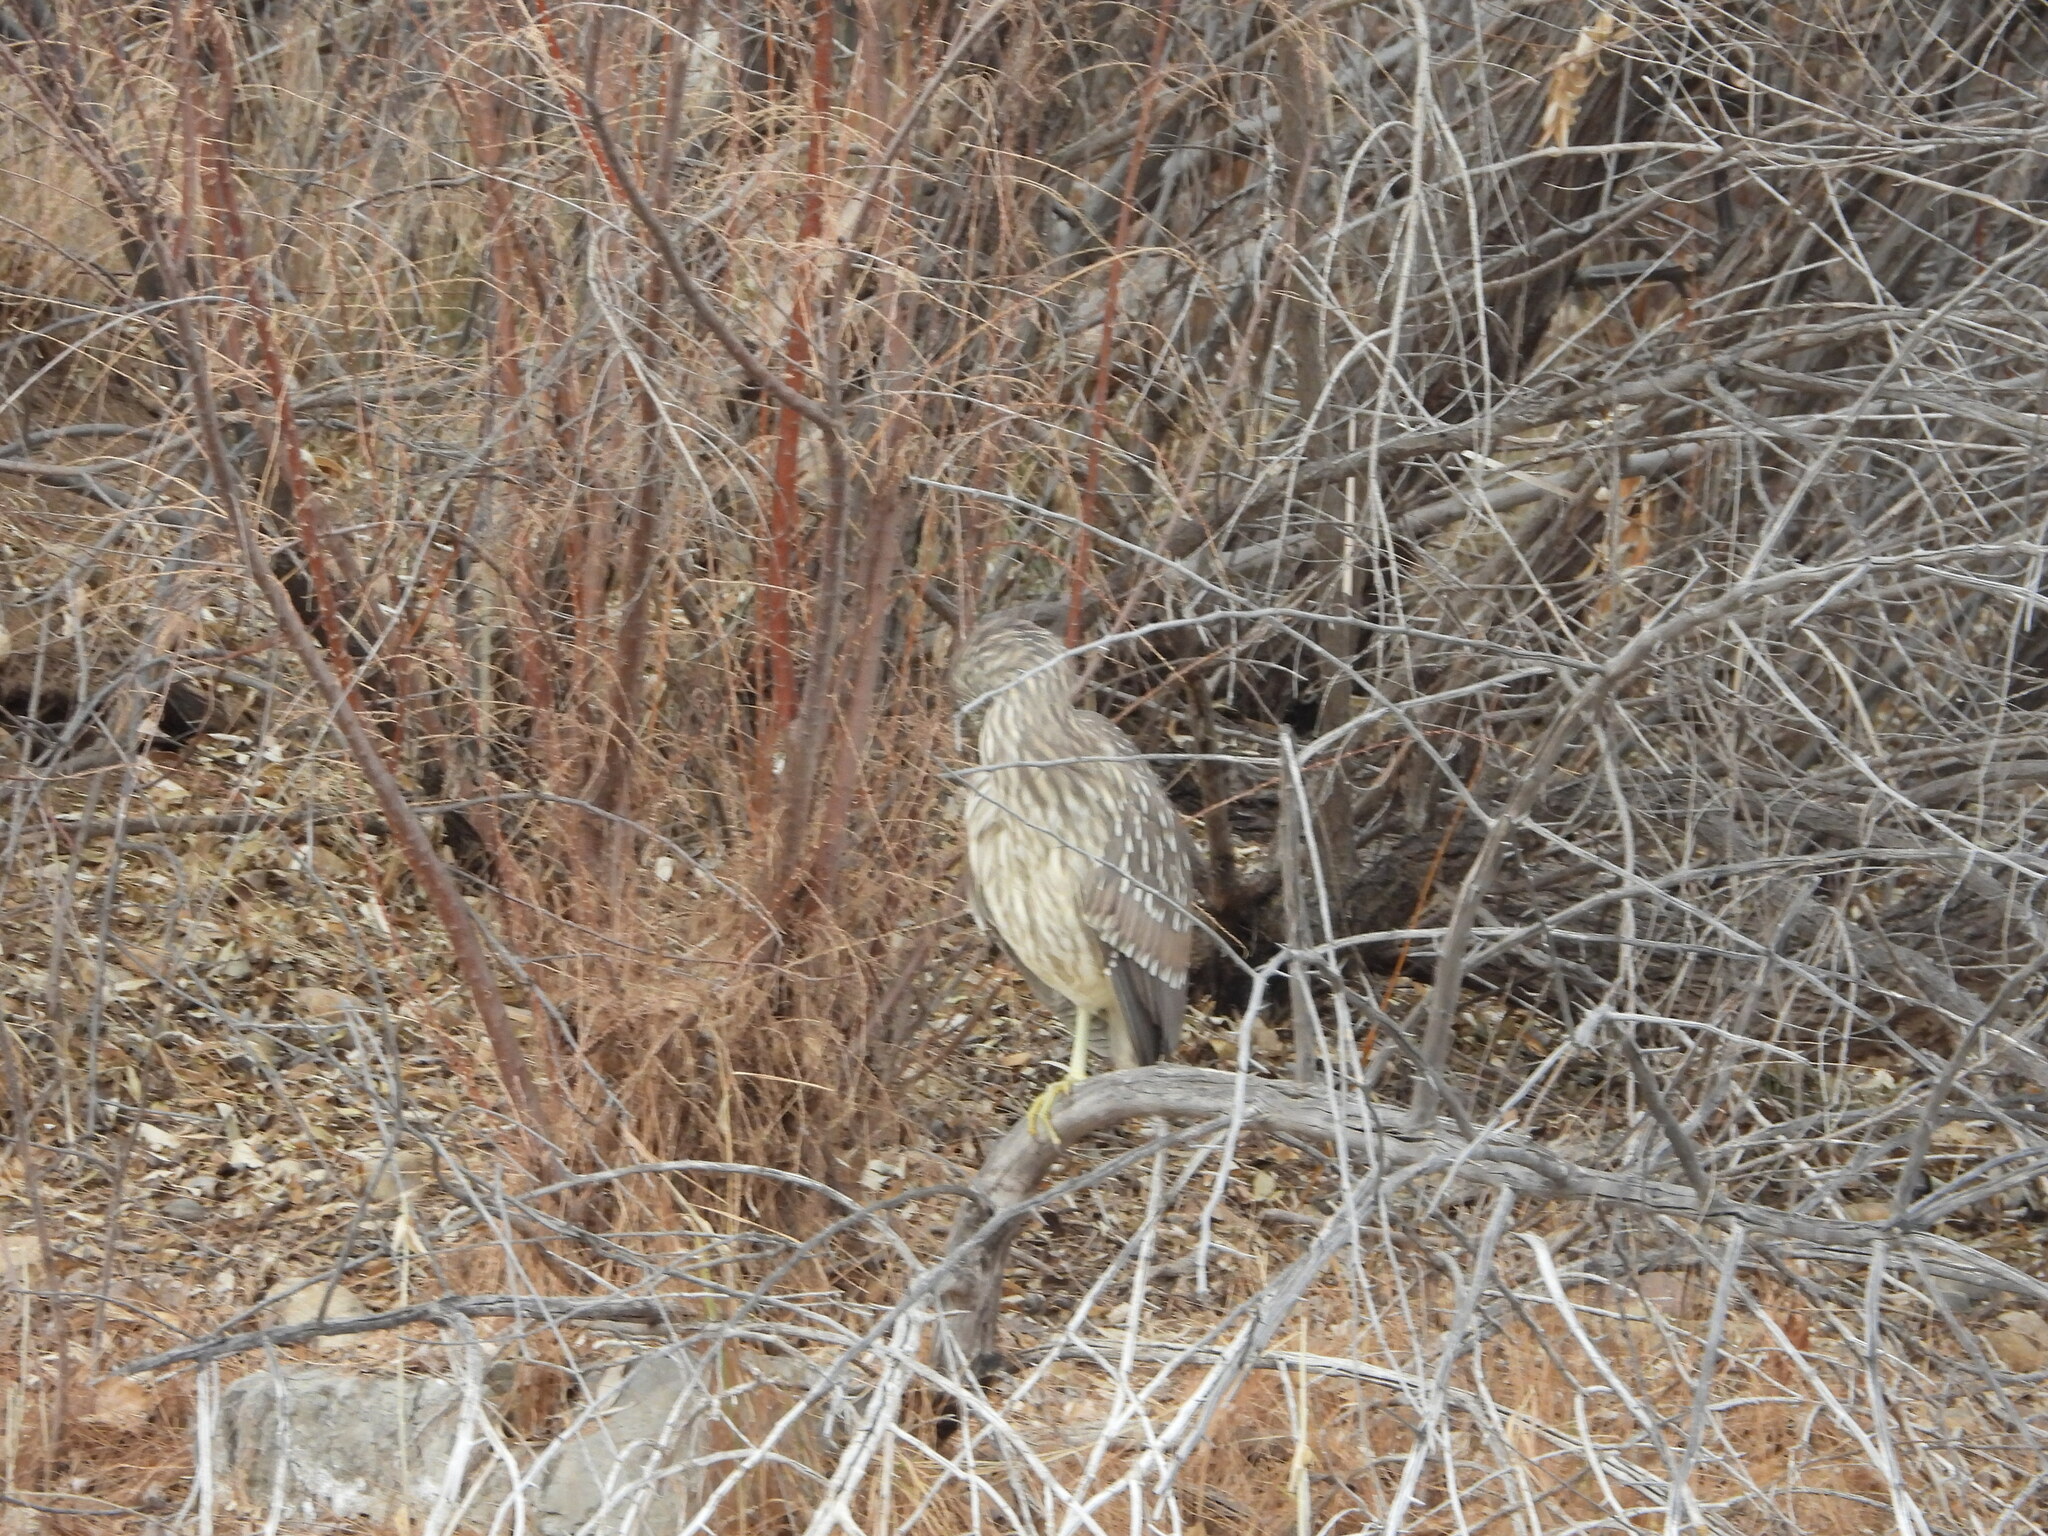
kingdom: Animalia
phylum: Chordata
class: Aves
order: Pelecaniformes
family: Ardeidae
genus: Nycticorax
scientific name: Nycticorax nycticorax
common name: Black-crowned night heron
